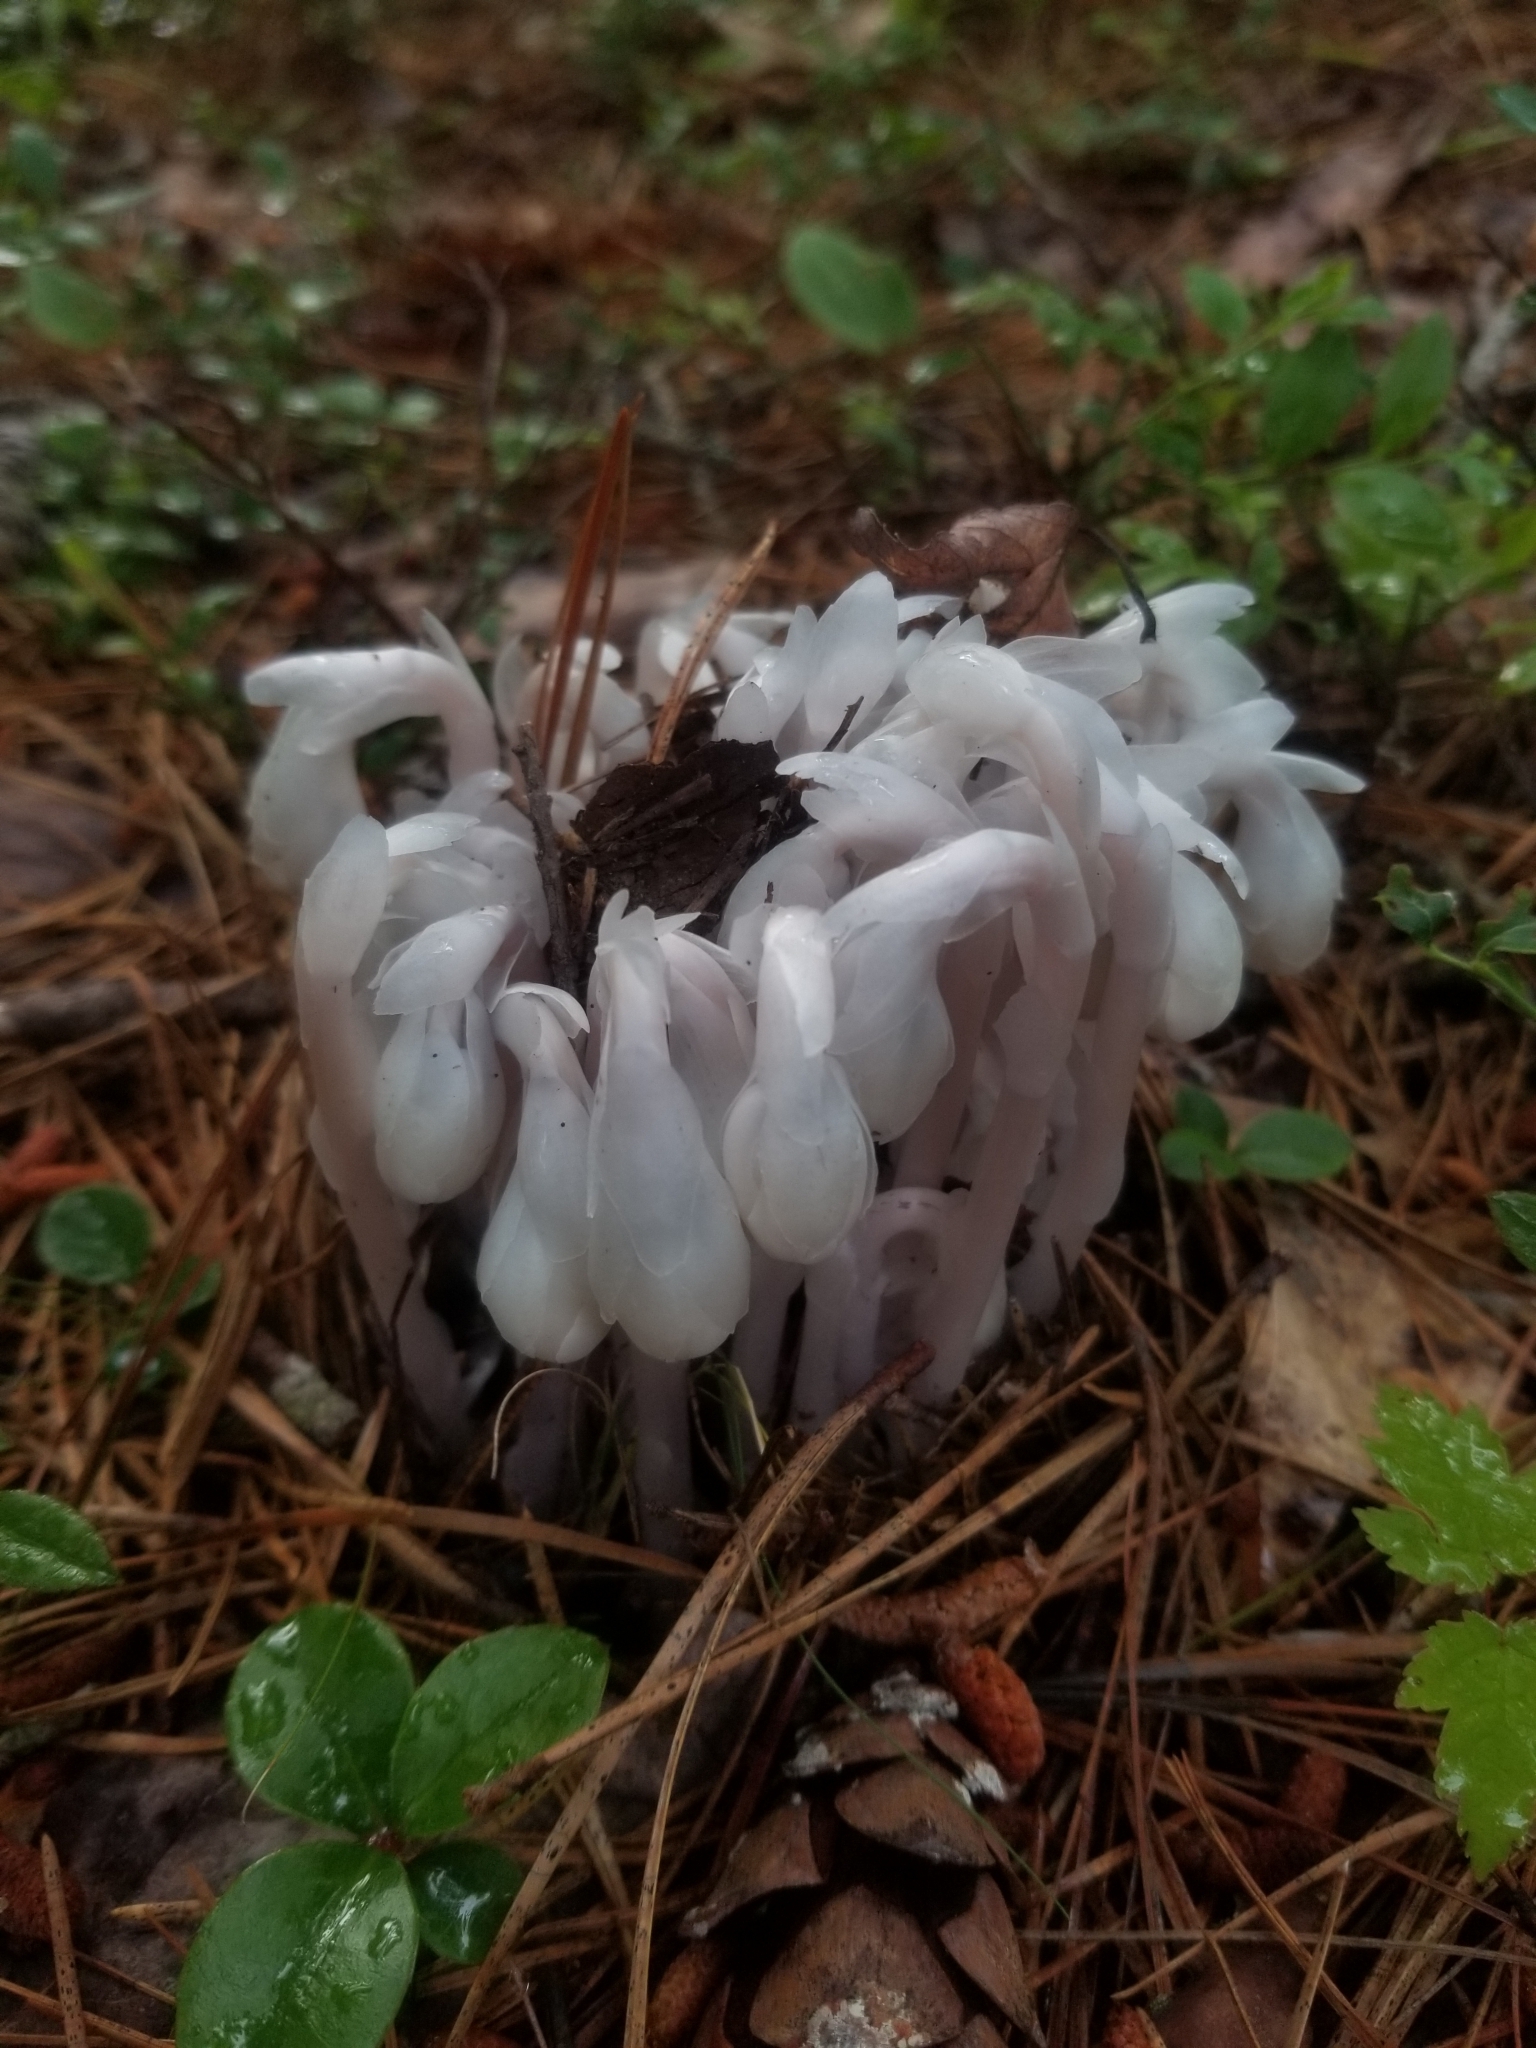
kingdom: Plantae
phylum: Tracheophyta
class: Magnoliopsida
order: Ericales
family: Ericaceae
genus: Monotropa
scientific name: Monotropa uniflora
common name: Convulsion root
